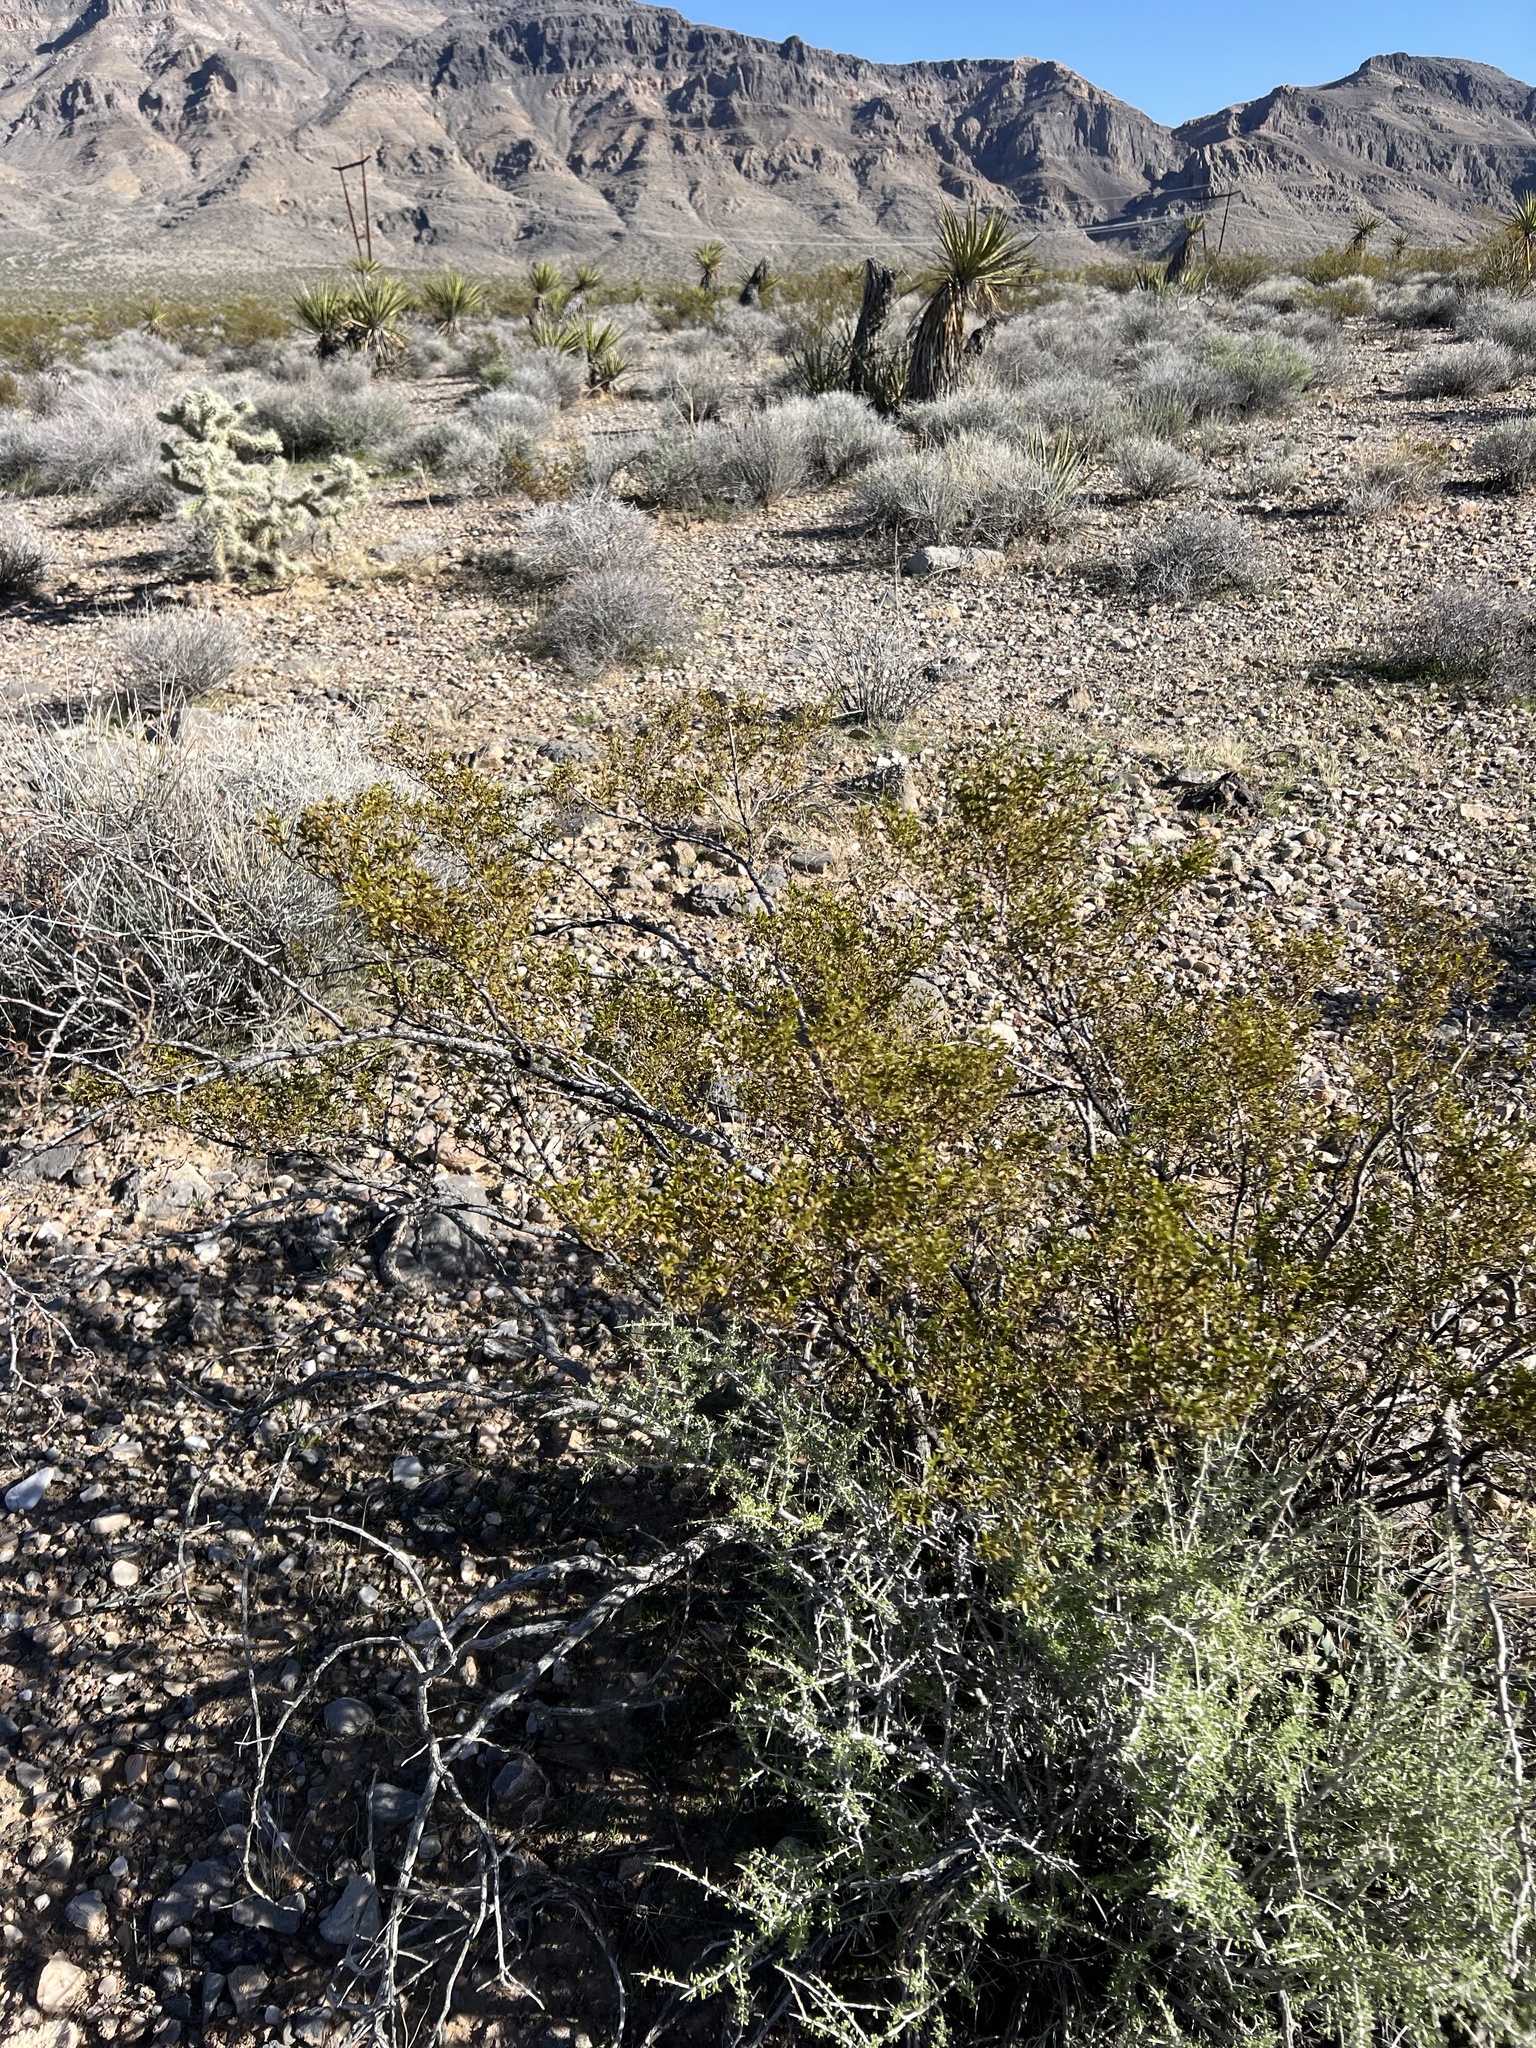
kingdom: Plantae
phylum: Tracheophyta
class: Magnoliopsida
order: Zygophyllales
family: Zygophyllaceae
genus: Larrea
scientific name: Larrea tridentata
